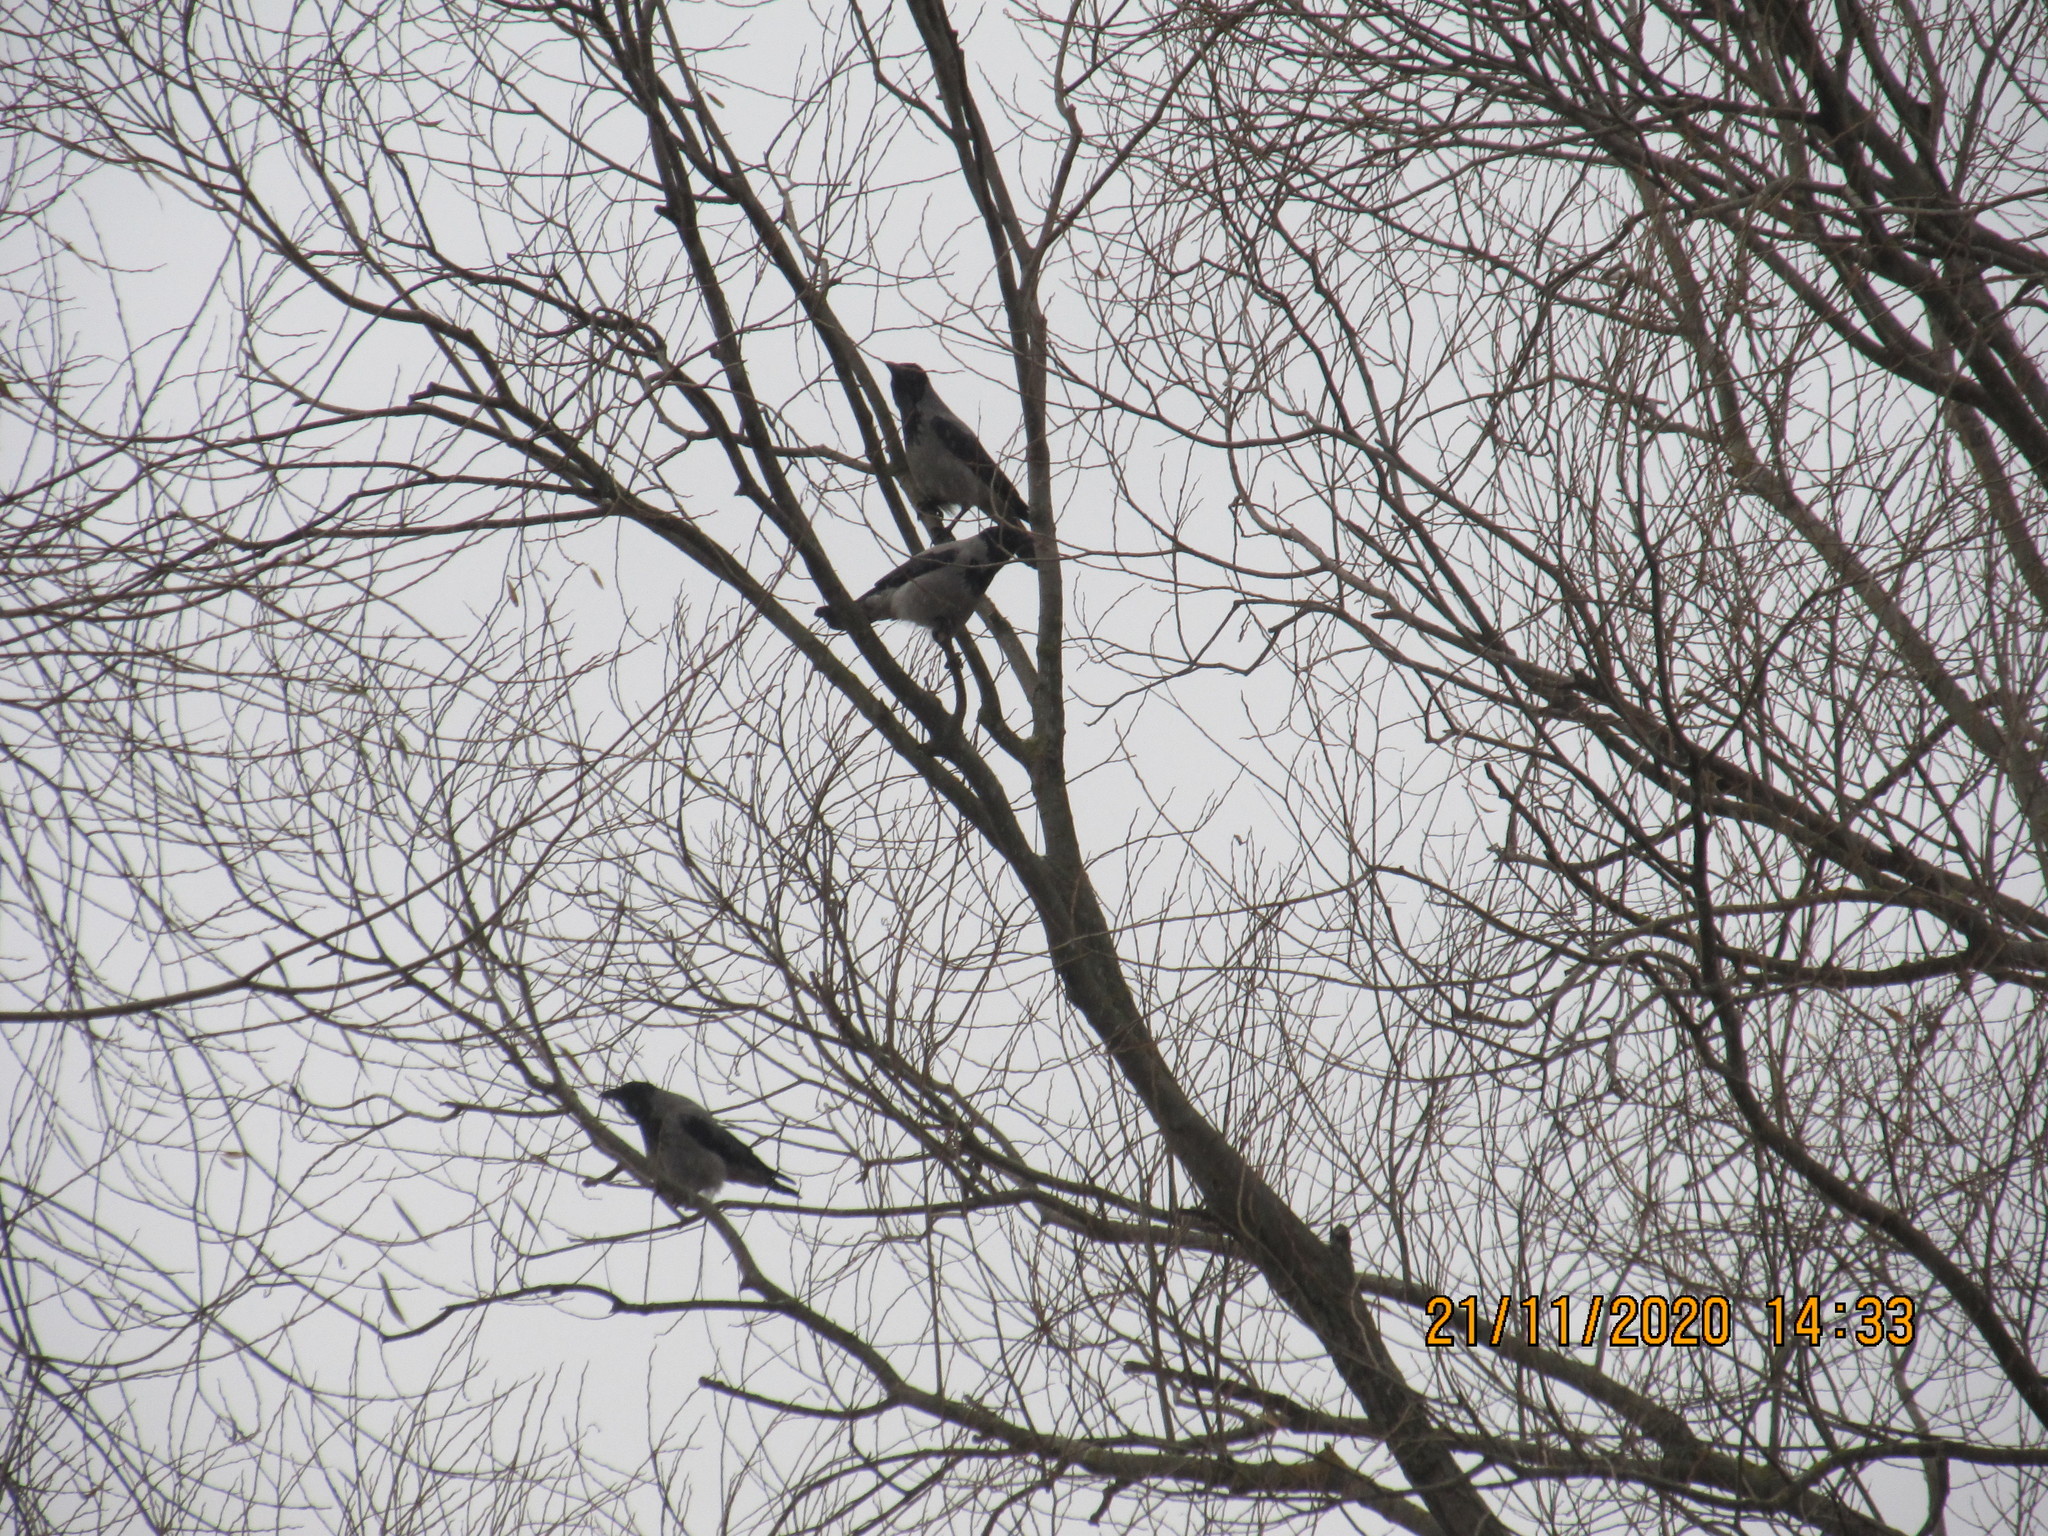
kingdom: Animalia
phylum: Chordata
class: Aves
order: Passeriformes
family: Corvidae
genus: Corvus
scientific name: Corvus cornix
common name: Hooded crow
